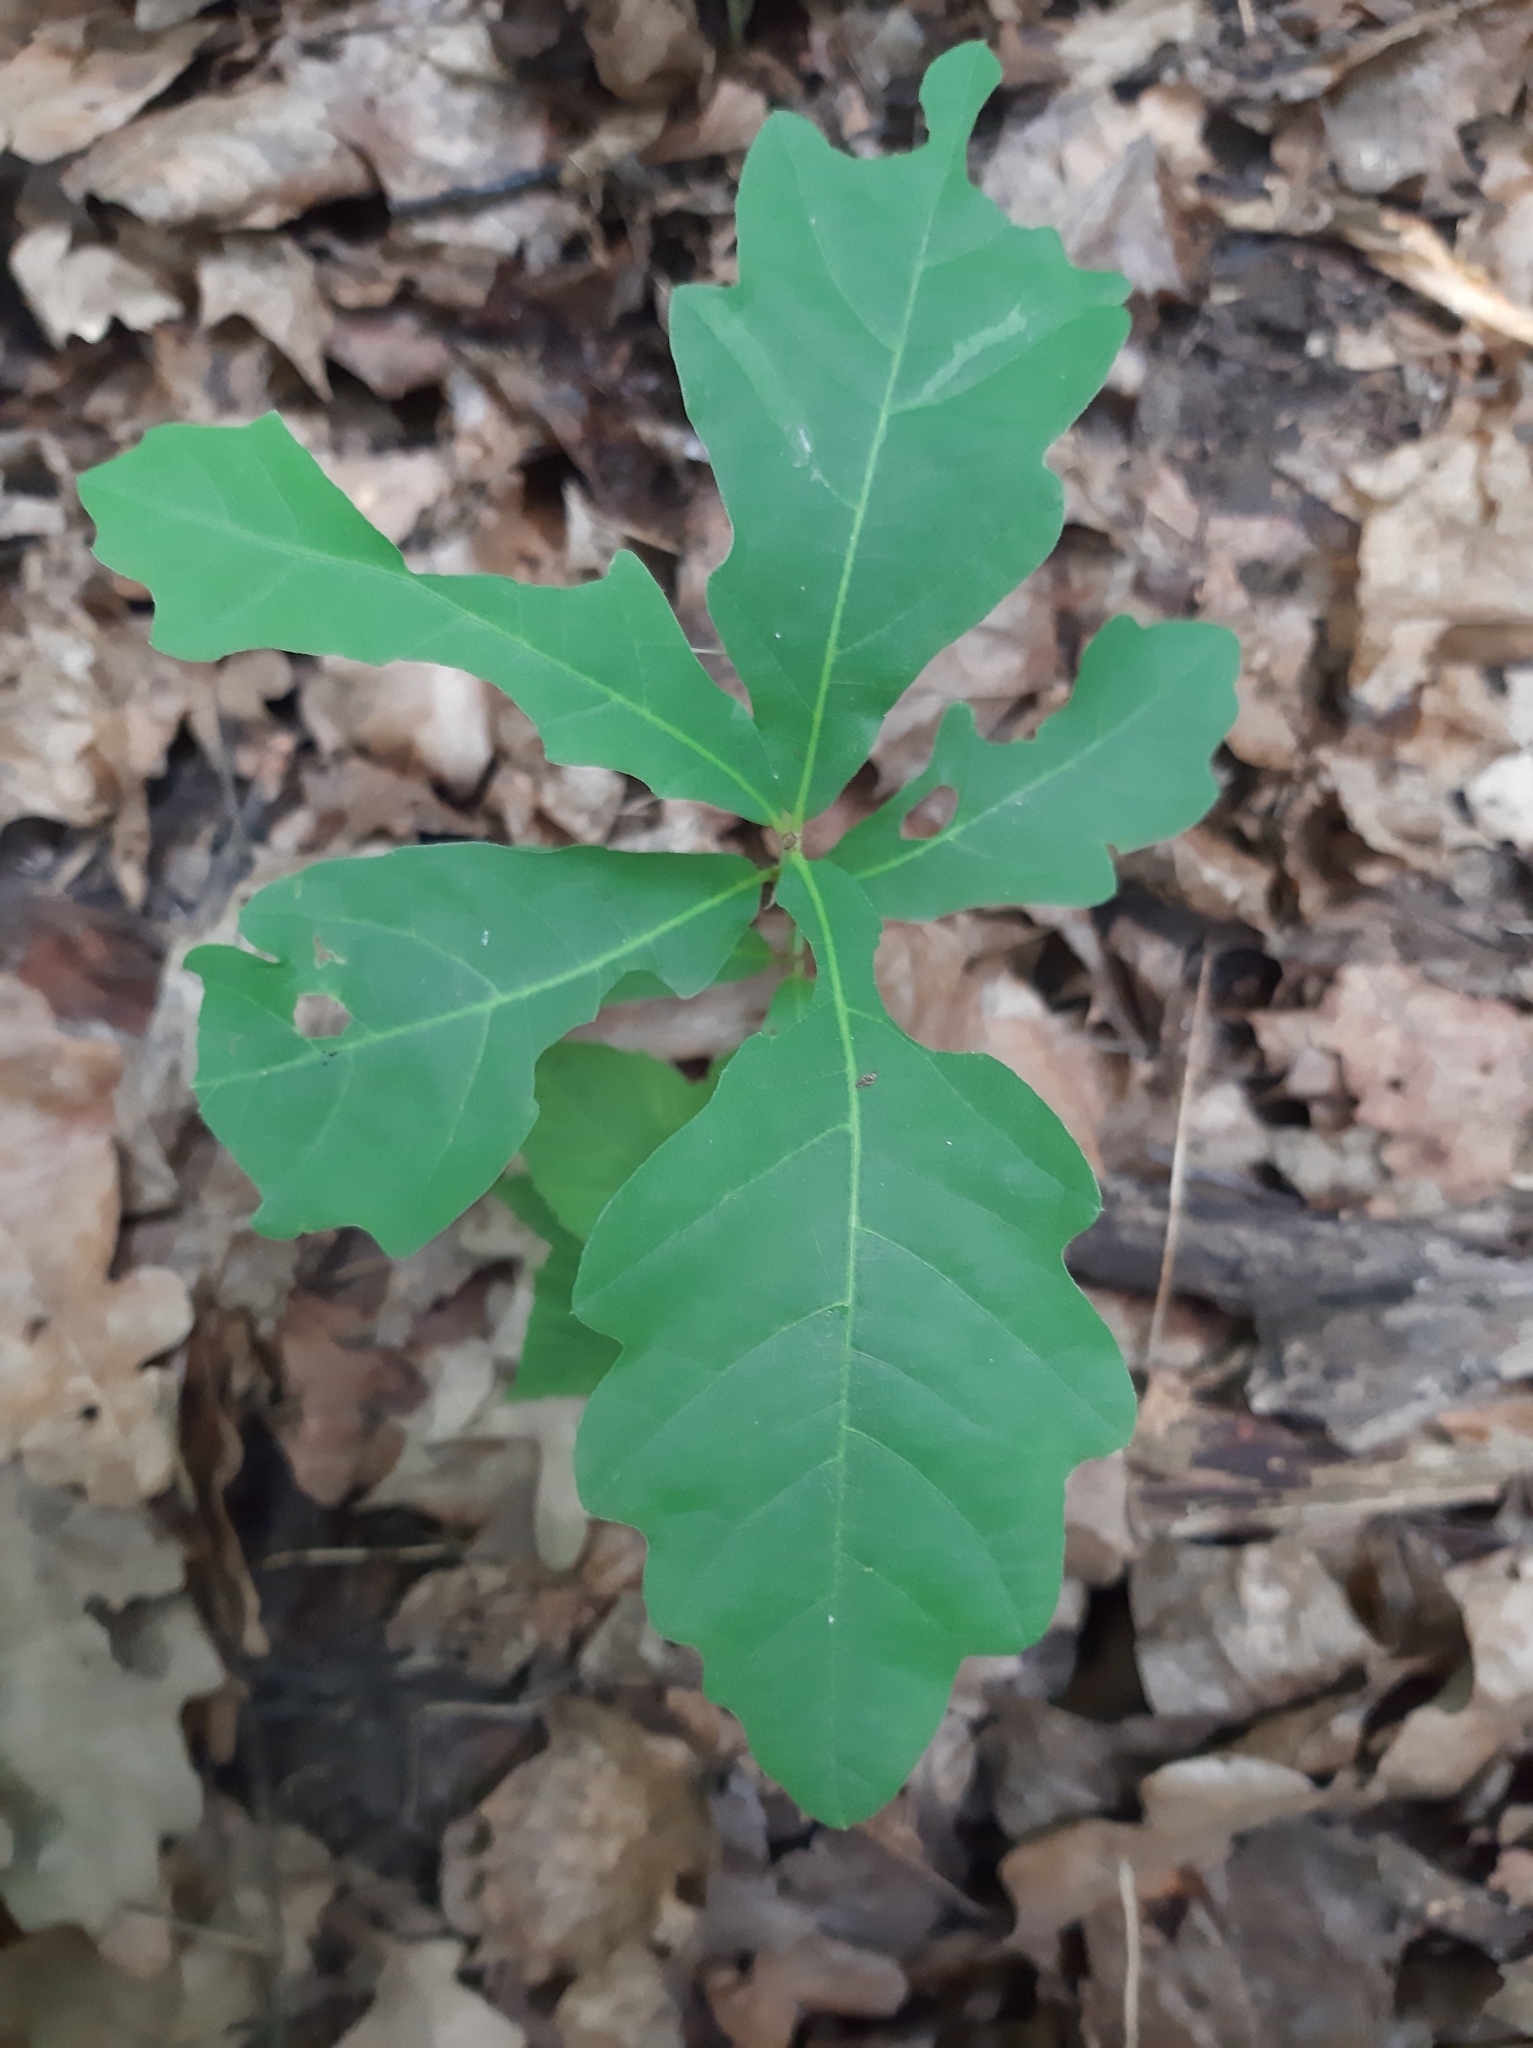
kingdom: Plantae
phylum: Tracheophyta
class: Magnoliopsida
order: Fagales
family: Fagaceae
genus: Quercus
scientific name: Quercus robur
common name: Pedunculate oak
